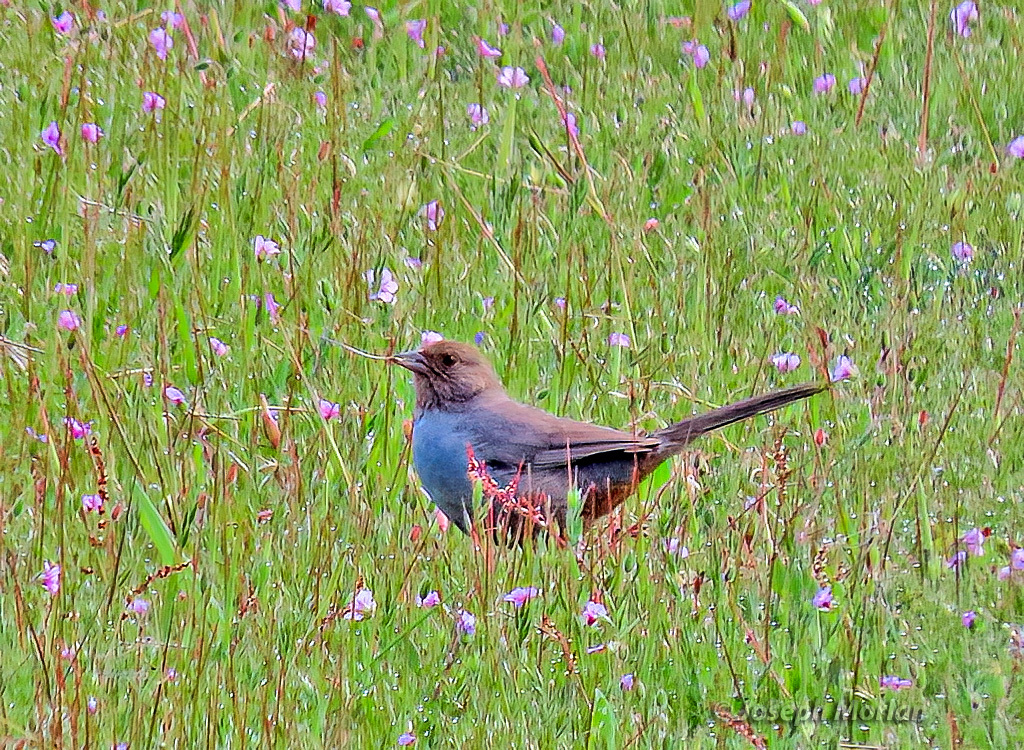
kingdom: Animalia
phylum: Chordata
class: Aves
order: Passeriformes
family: Passerellidae
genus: Melozone
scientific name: Melozone crissalis
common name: California towhee
